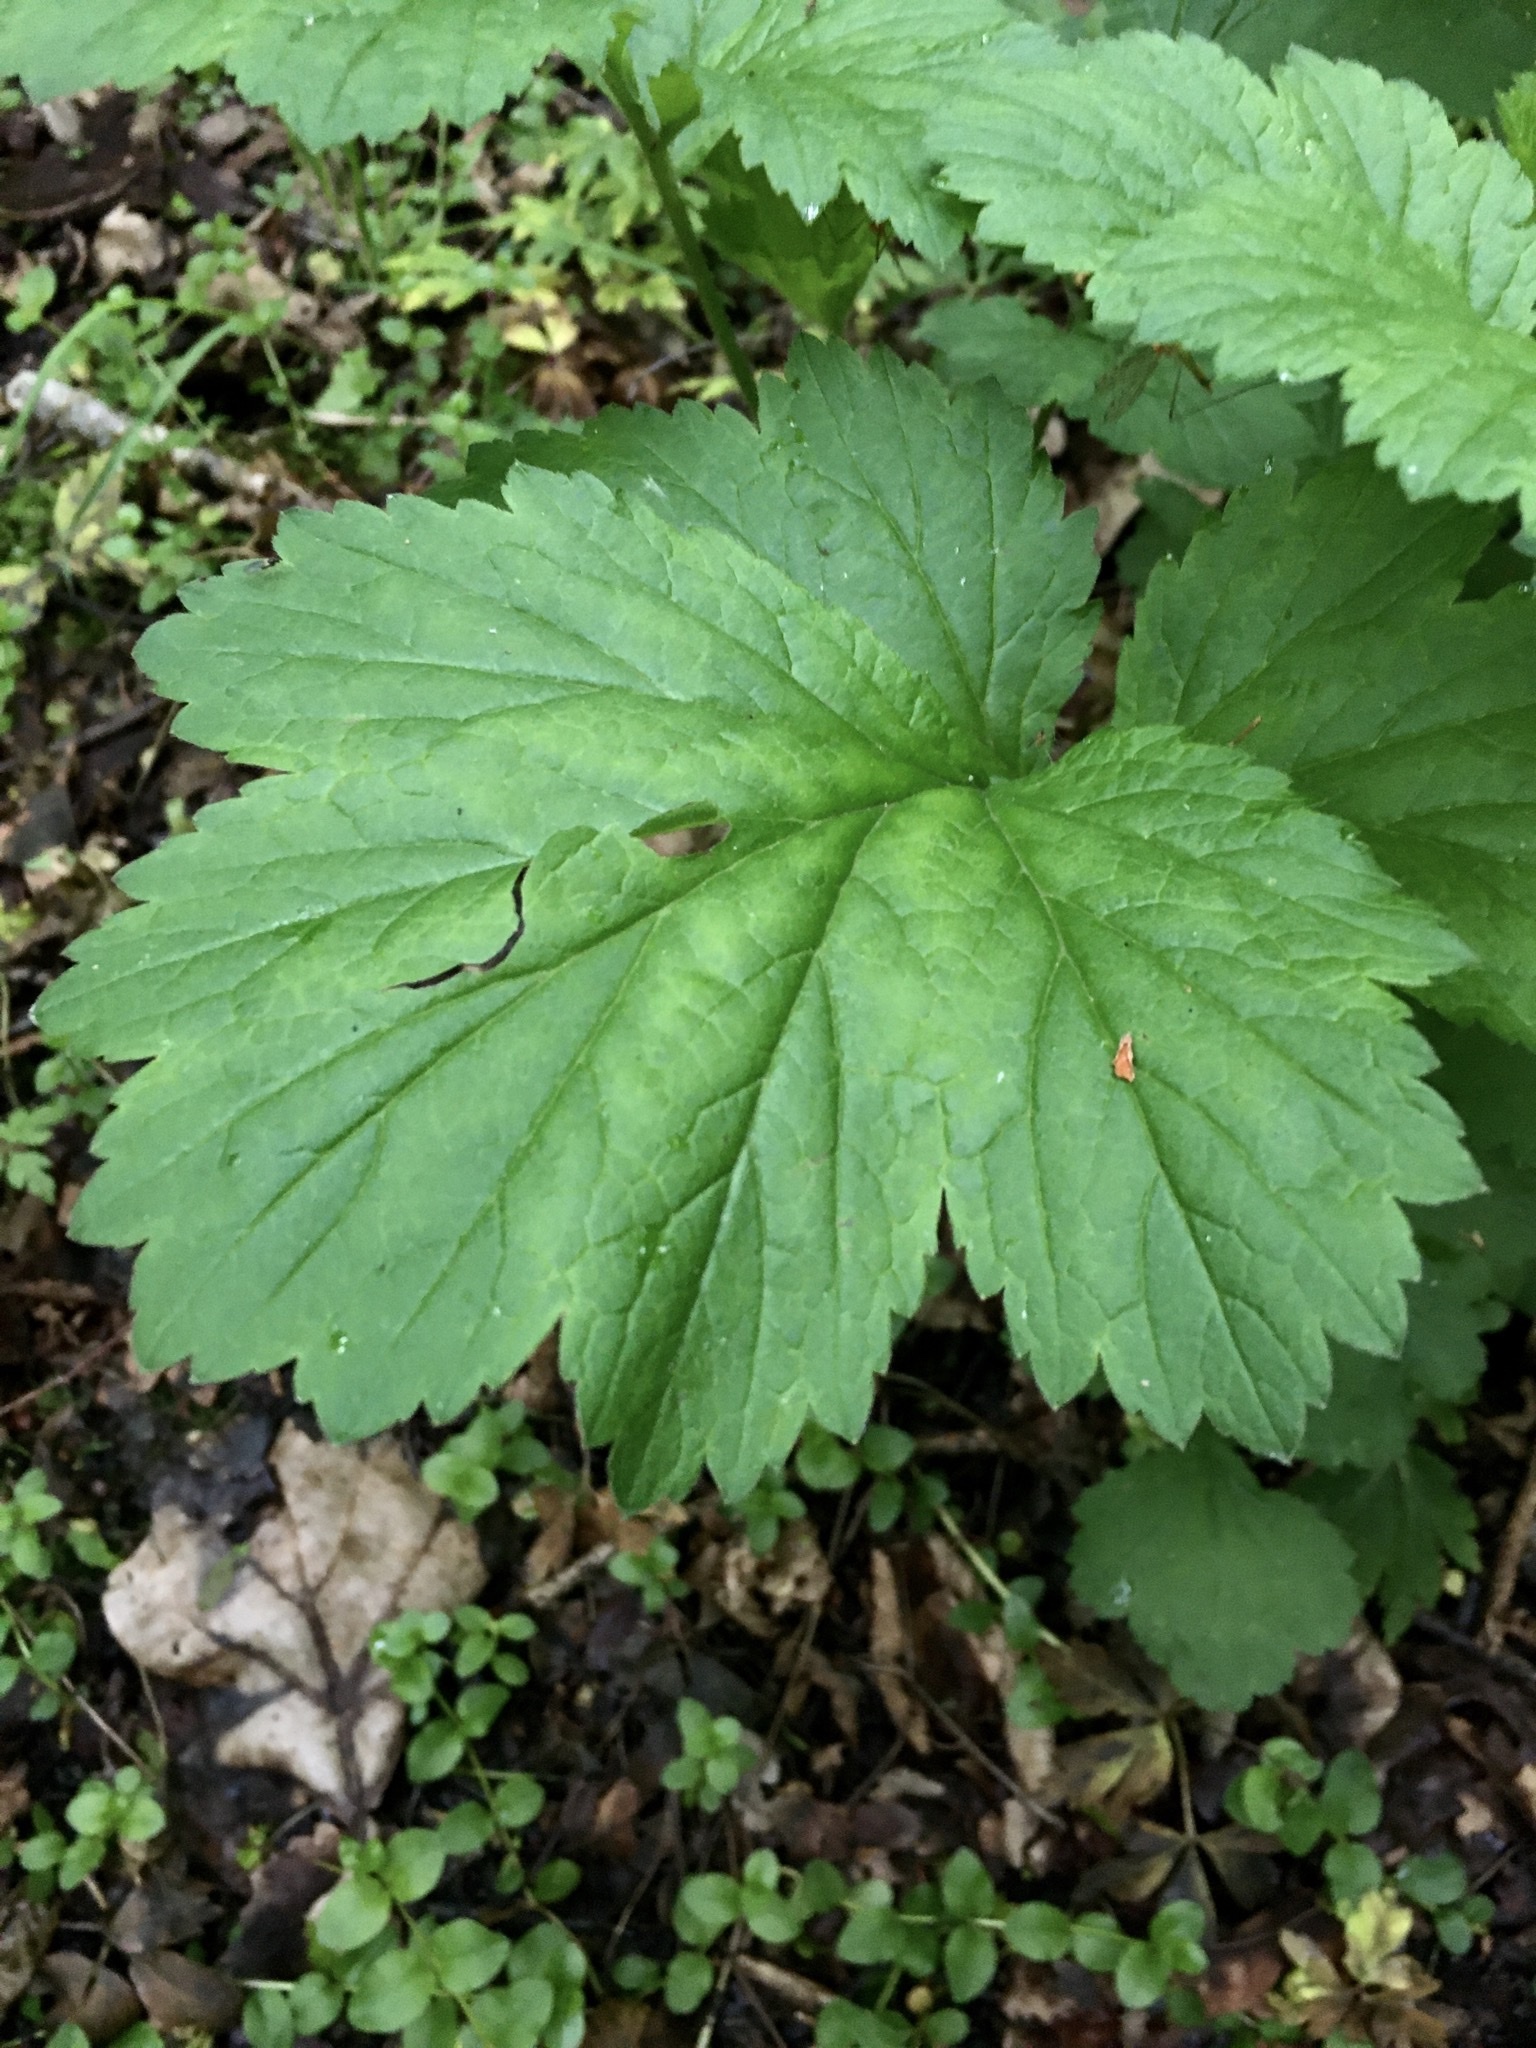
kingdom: Plantae
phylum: Tracheophyta
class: Magnoliopsida
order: Rosales
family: Rosaceae
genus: Geum
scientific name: Geum urbanum
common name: Wood avens
